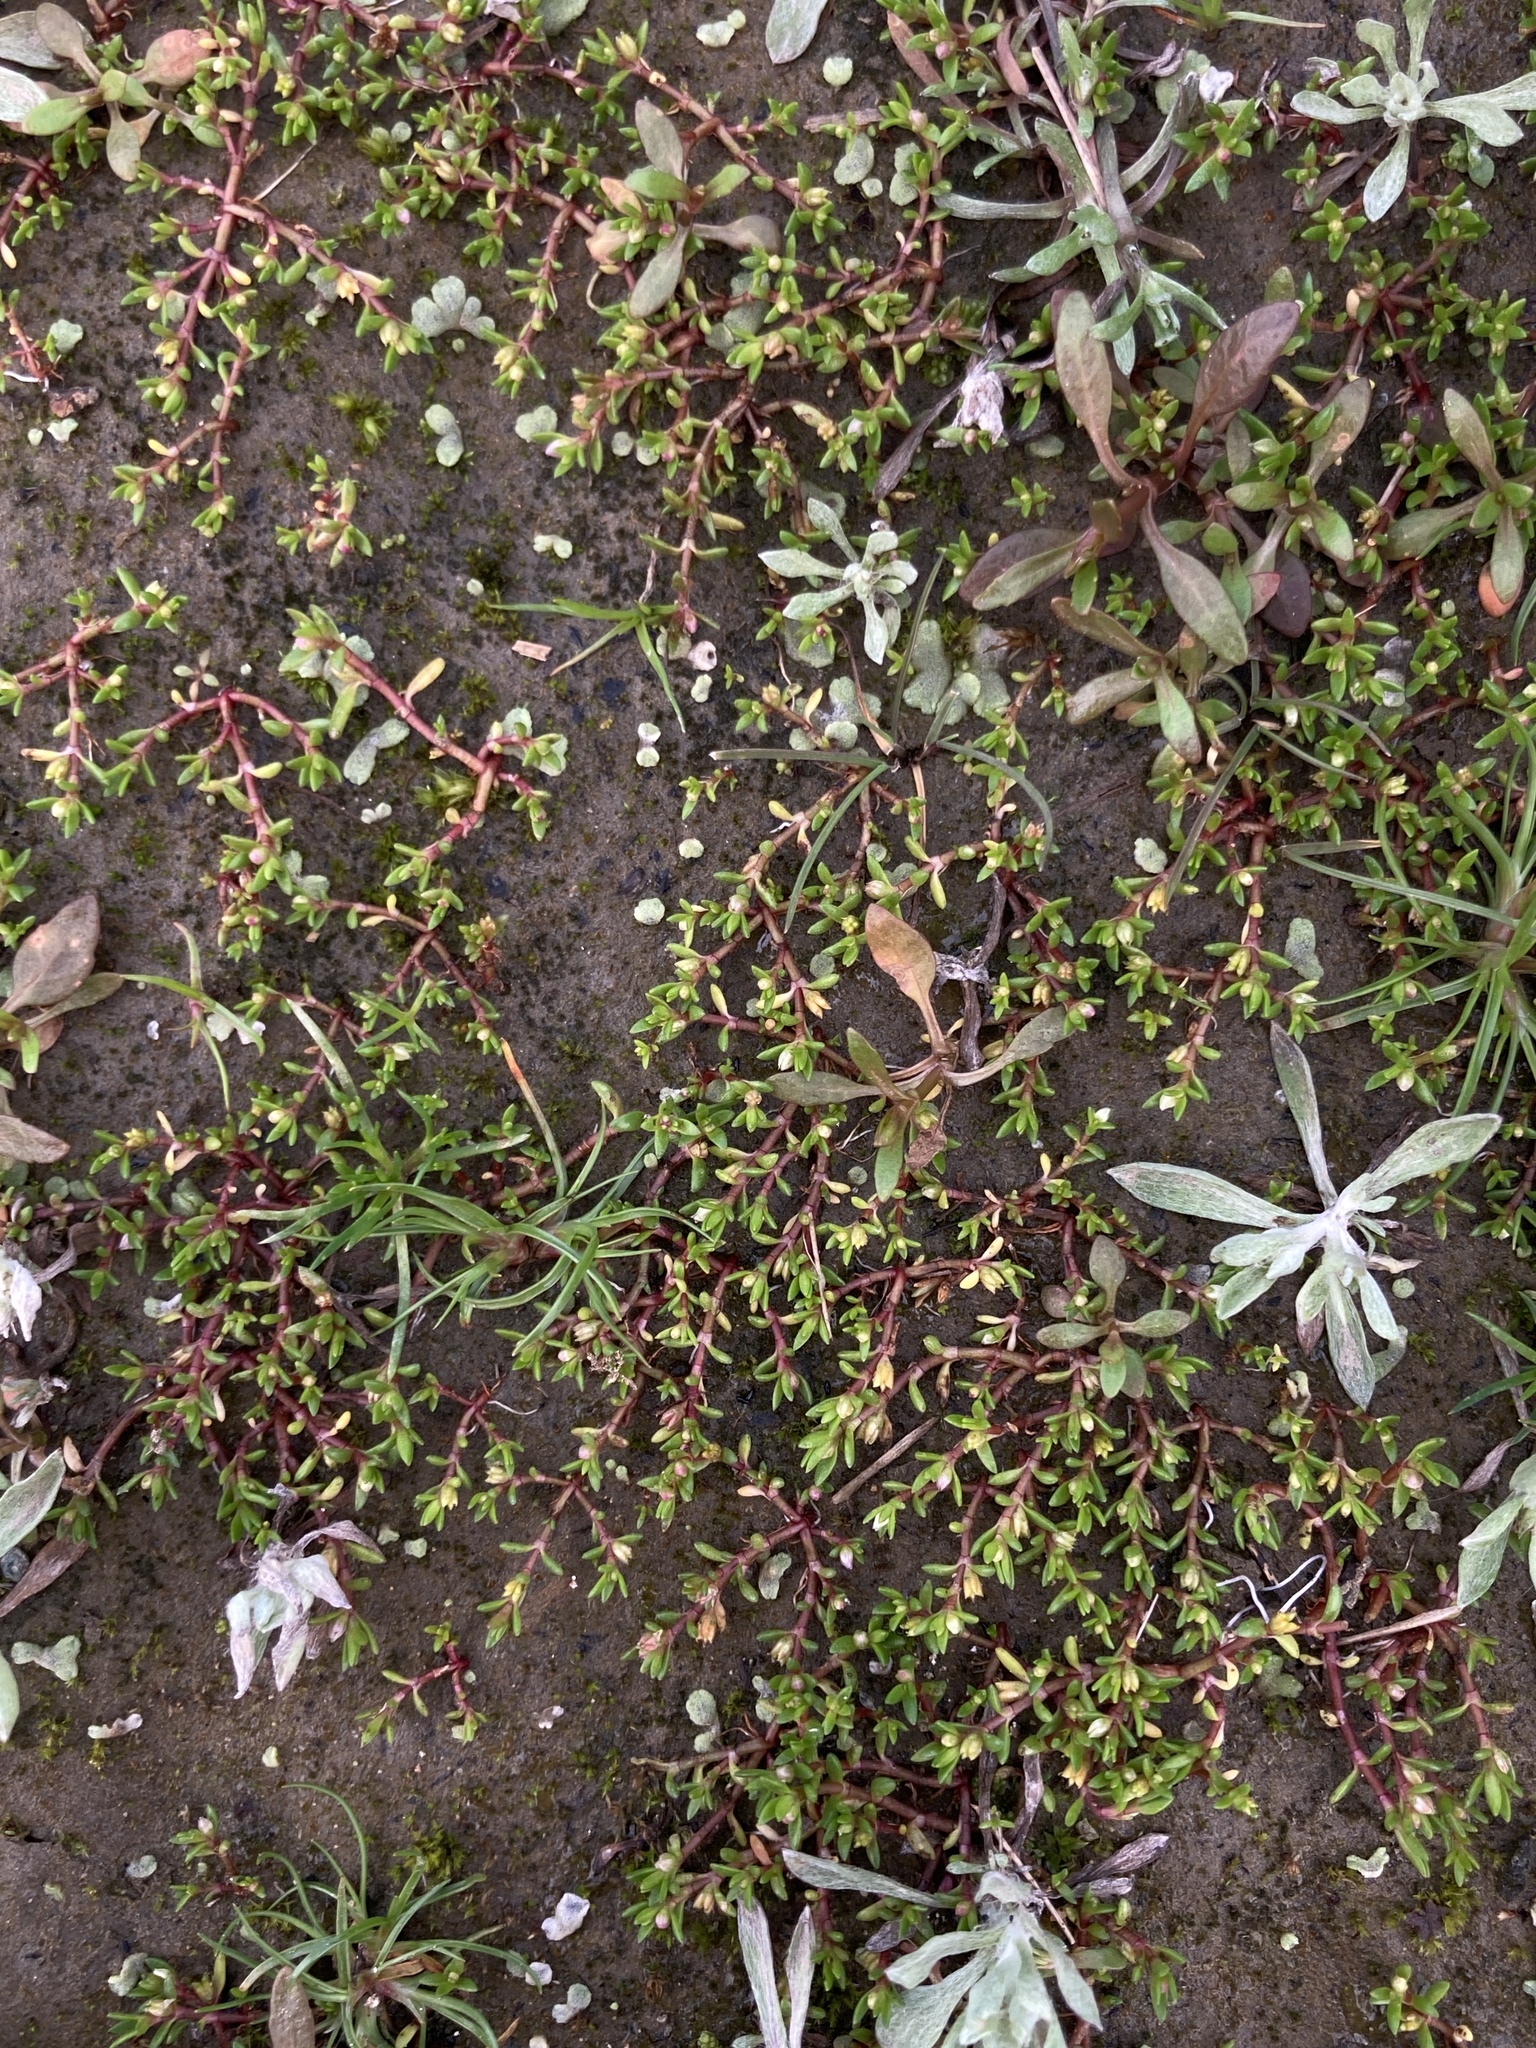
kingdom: Plantae
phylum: Tracheophyta
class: Magnoliopsida
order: Saxifragales
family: Crassulaceae
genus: Crassula
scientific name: Crassula aquatica
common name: Pigmyweed
